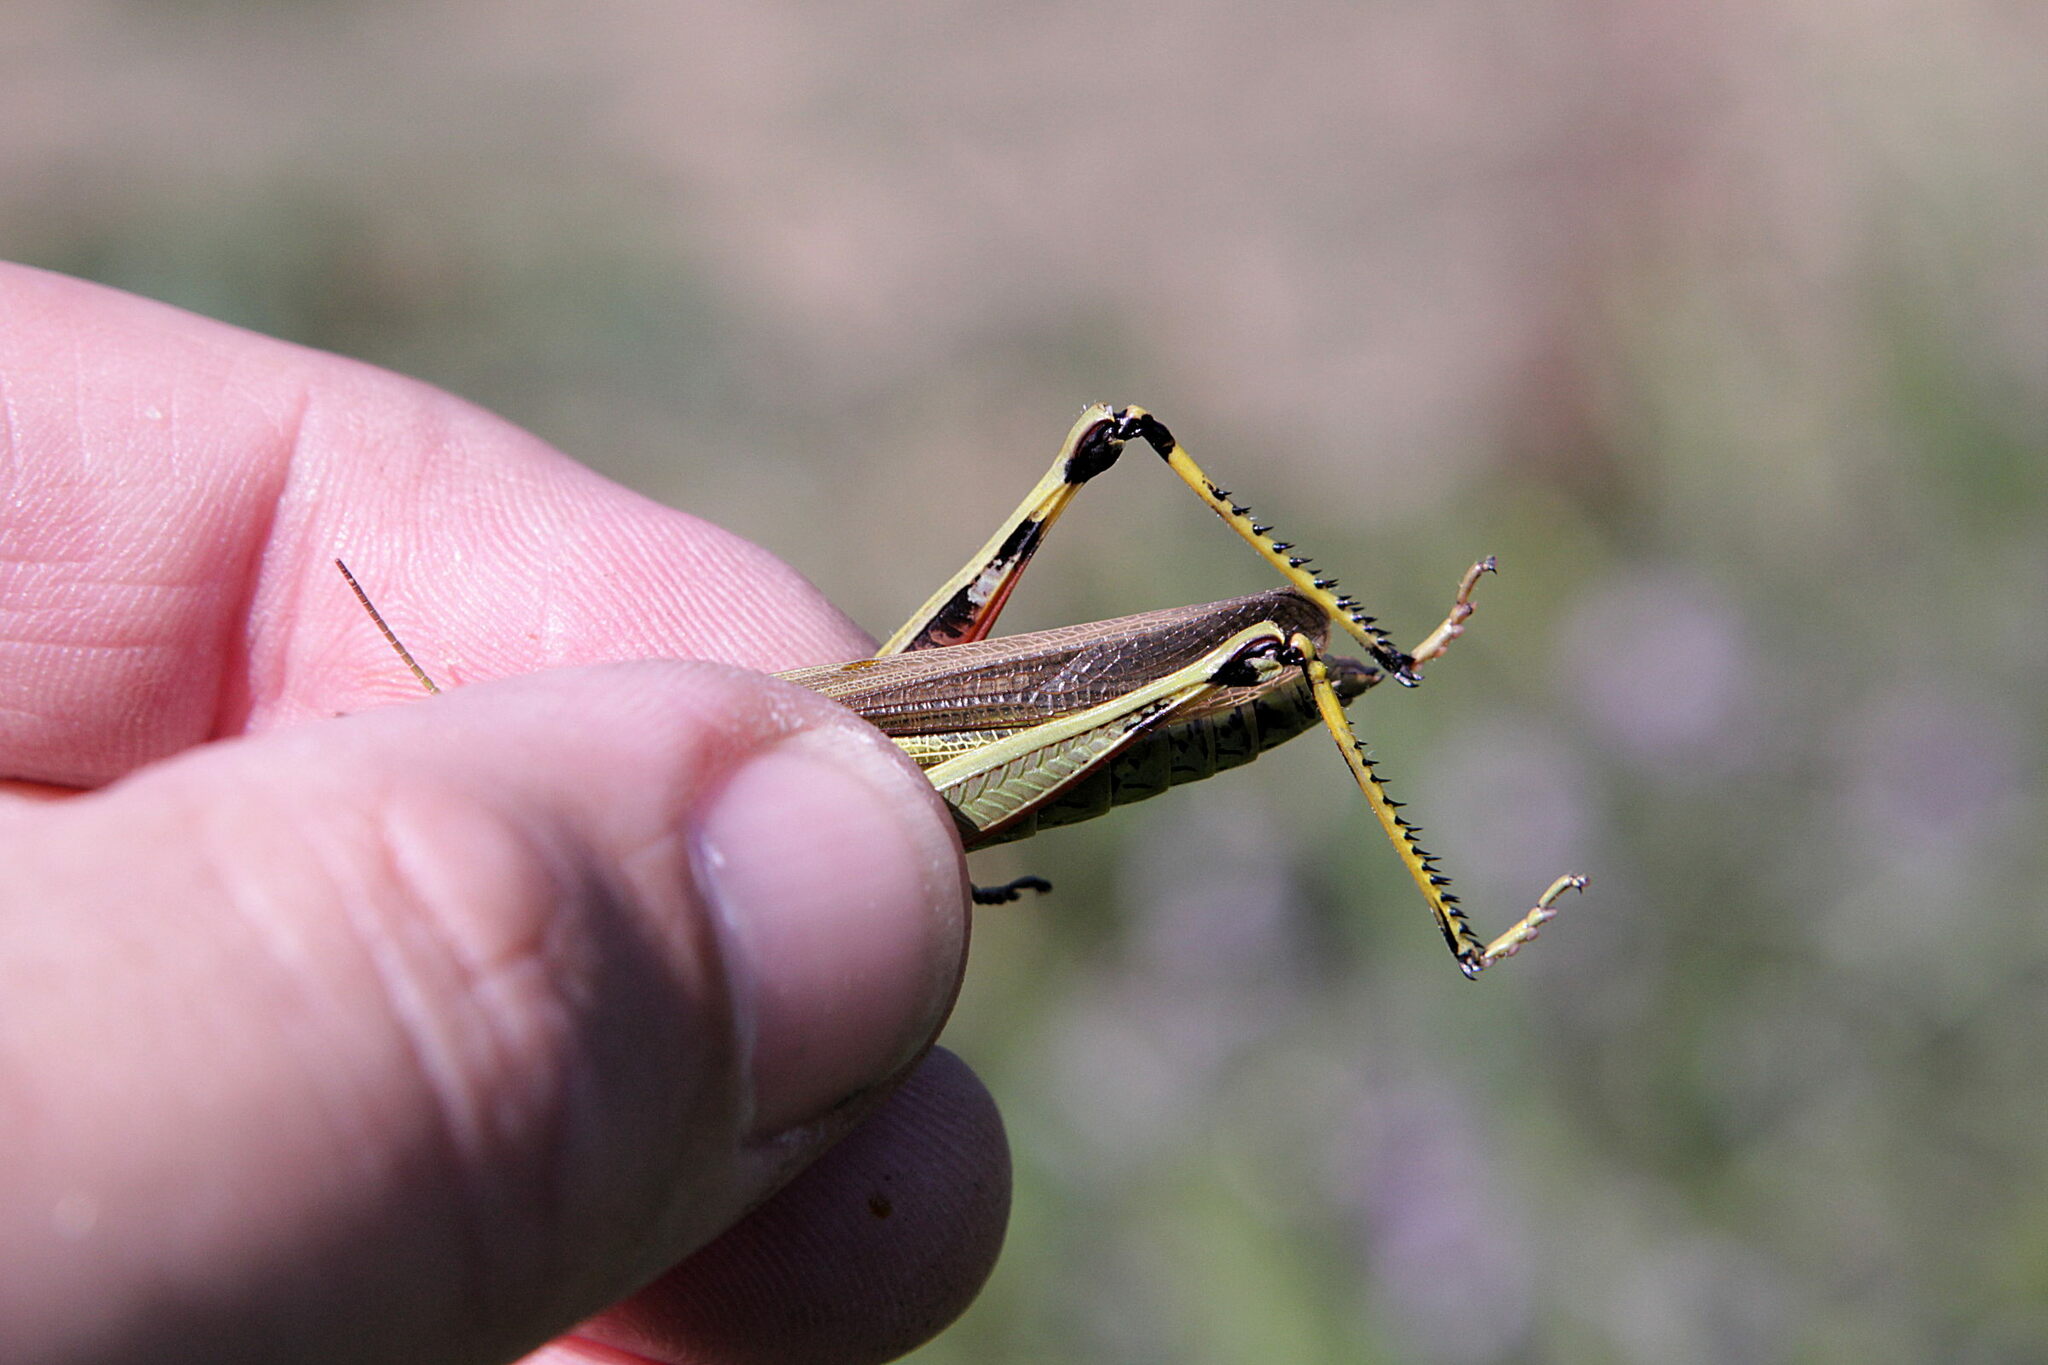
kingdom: Animalia
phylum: Arthropoda
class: Insecta
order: Orthoptera
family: Acrididae
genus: Stethophyma
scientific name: Stethophyma grossum
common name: Large marsh grasshopper
